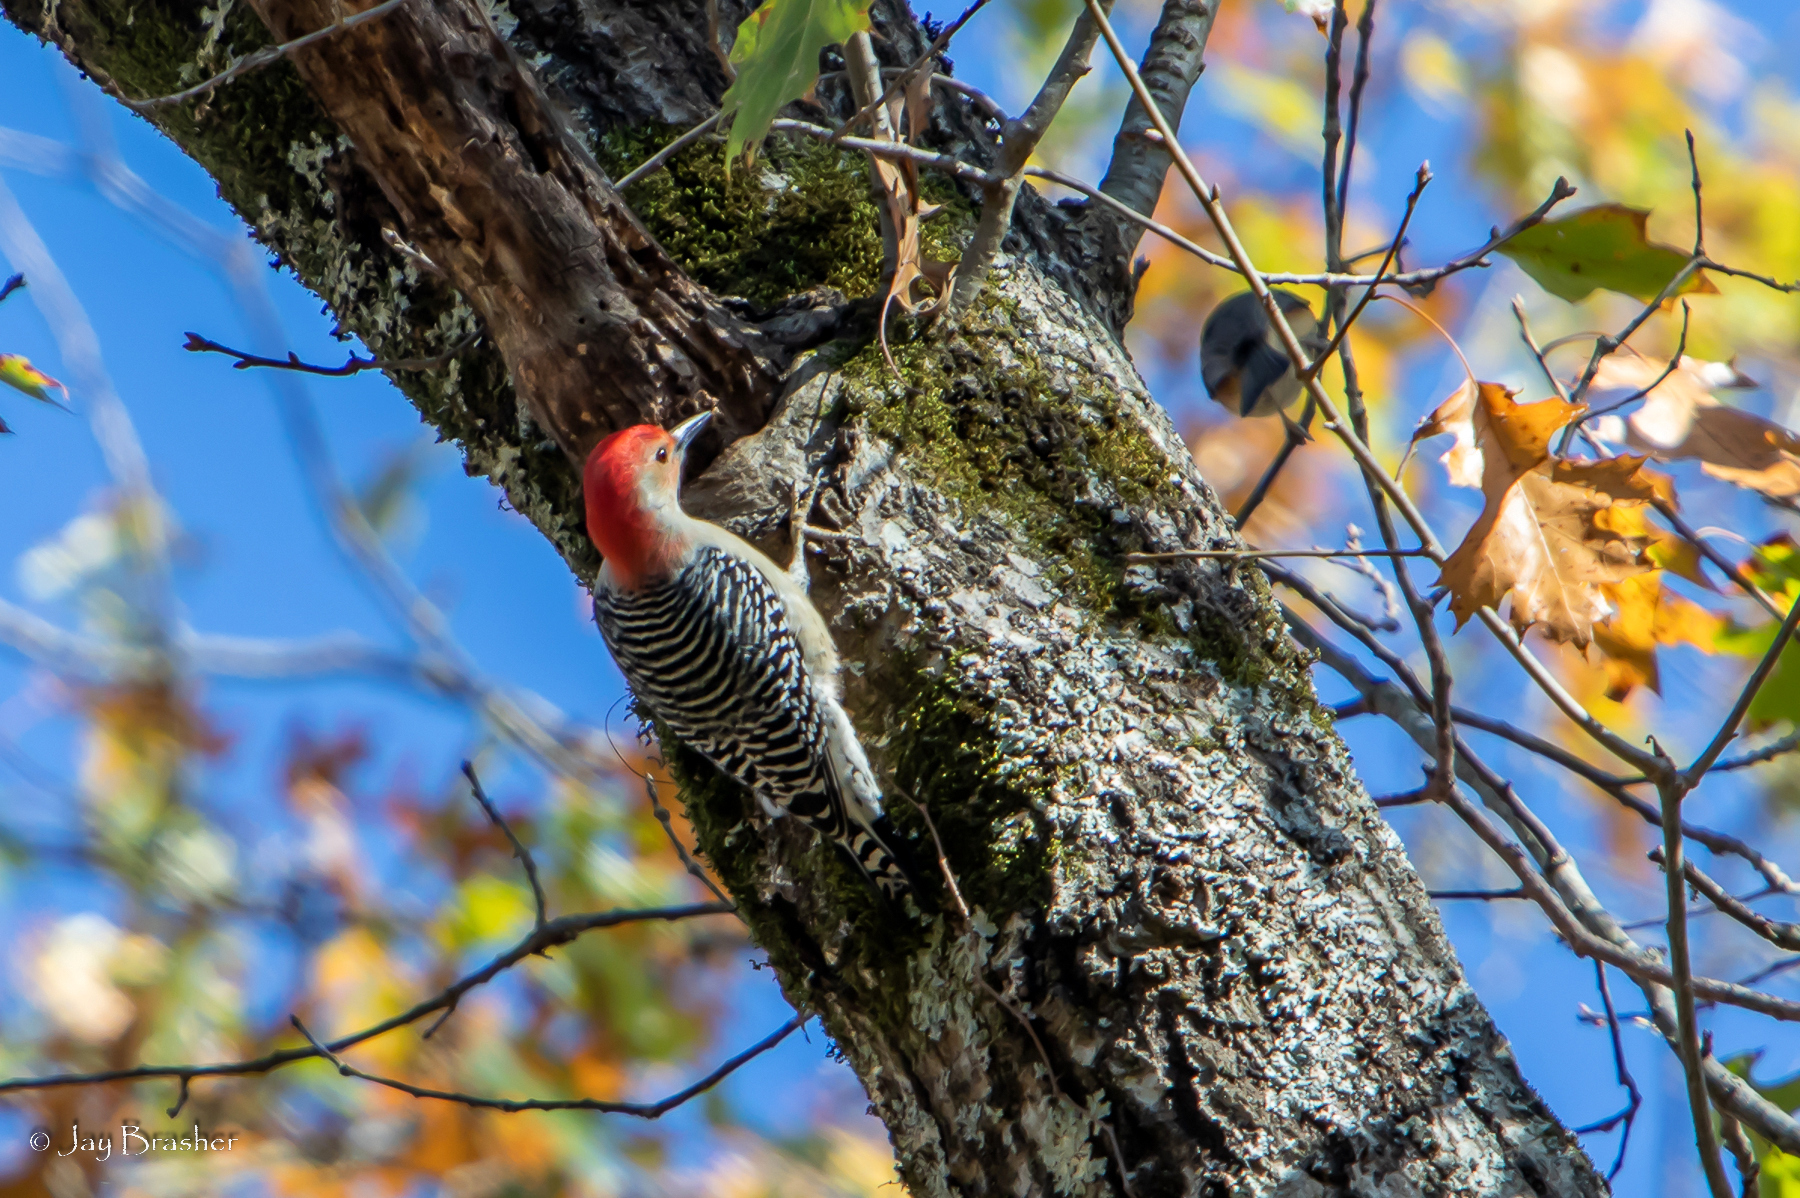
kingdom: Animalia
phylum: Chordata
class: Aves
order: Piciformes
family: Picidae
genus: Melanerpes
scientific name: Melanerpes carolinus
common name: Red-bellied woodpecker
